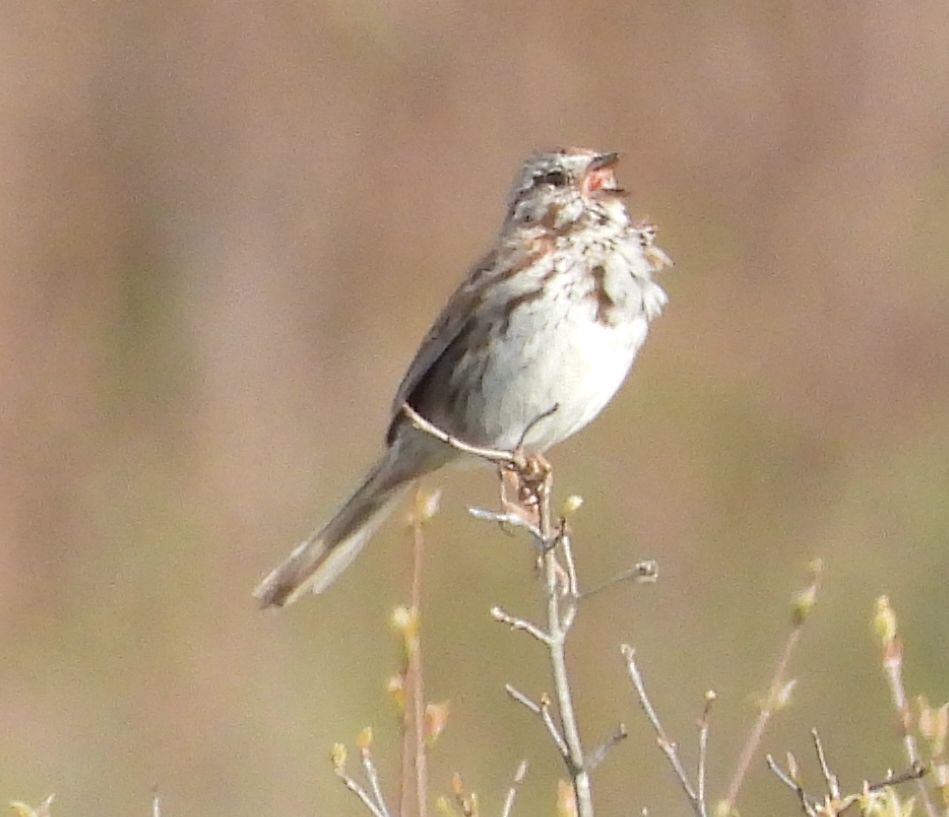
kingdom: Animalia
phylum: Chordata
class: Aves
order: Passeriformes
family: Passerellidae
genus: Melospiza
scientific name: Melospiza melodia
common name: Song sparrow
